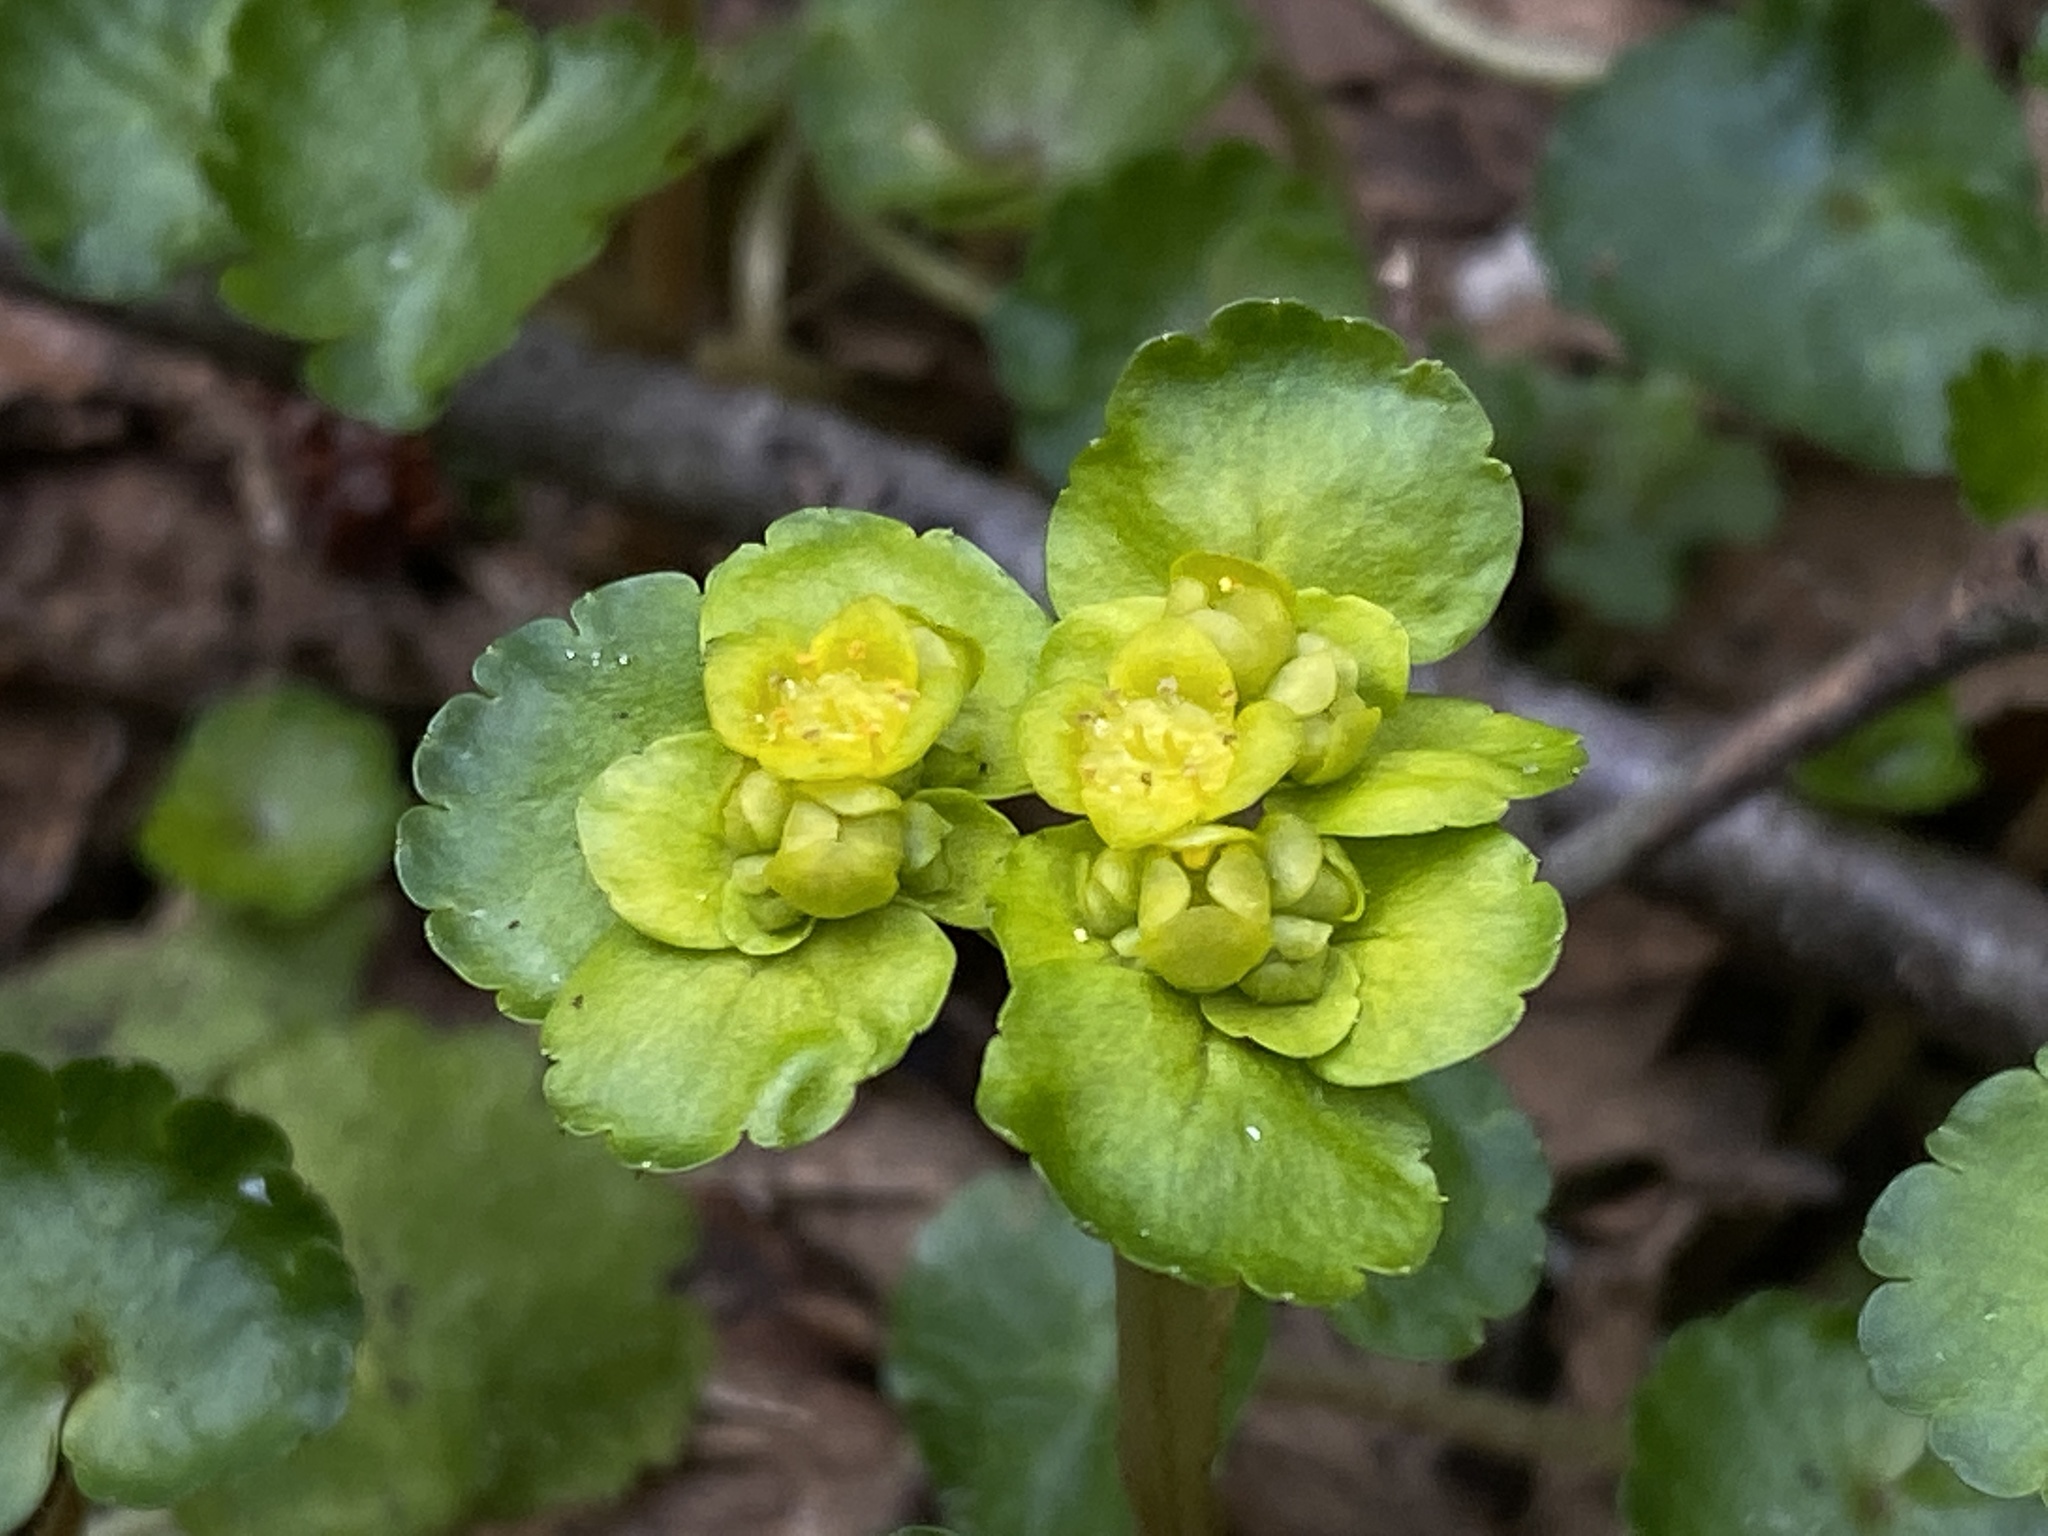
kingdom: Plantae
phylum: Tracheophyta
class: Magnoliopsida
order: Saxifragales
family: Saxifragaceae
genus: Chrysosplenium
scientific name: Chrysosplenium alternifolium
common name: Alternate-leaved golden-saxifrage
